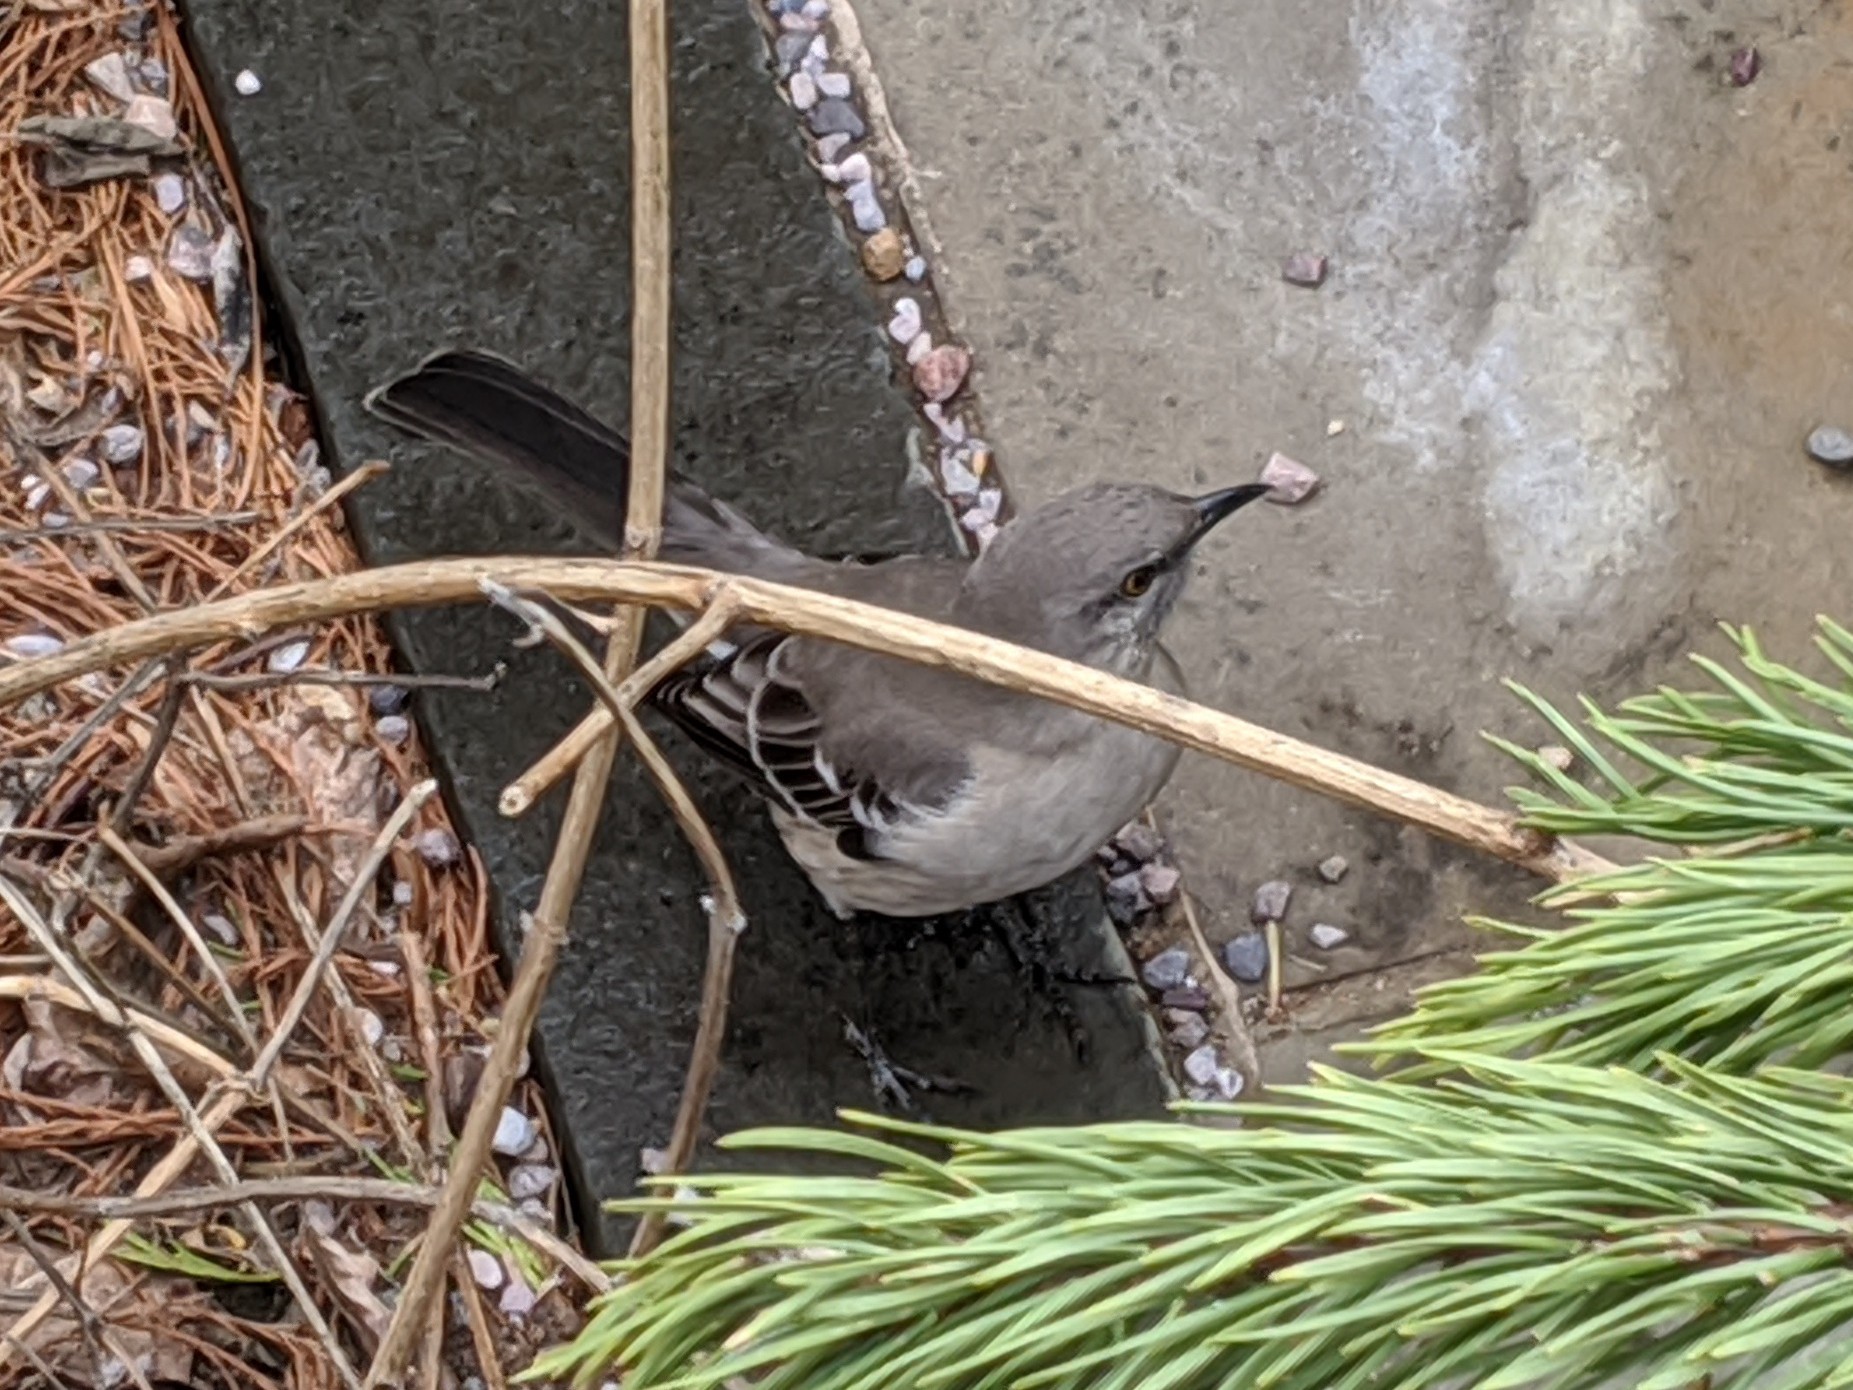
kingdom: Animalia
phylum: Chordata
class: Aves
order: Passeriformes
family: Mimidae
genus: Mimus
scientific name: Mimus polyglottos
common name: Northern mockingbird
